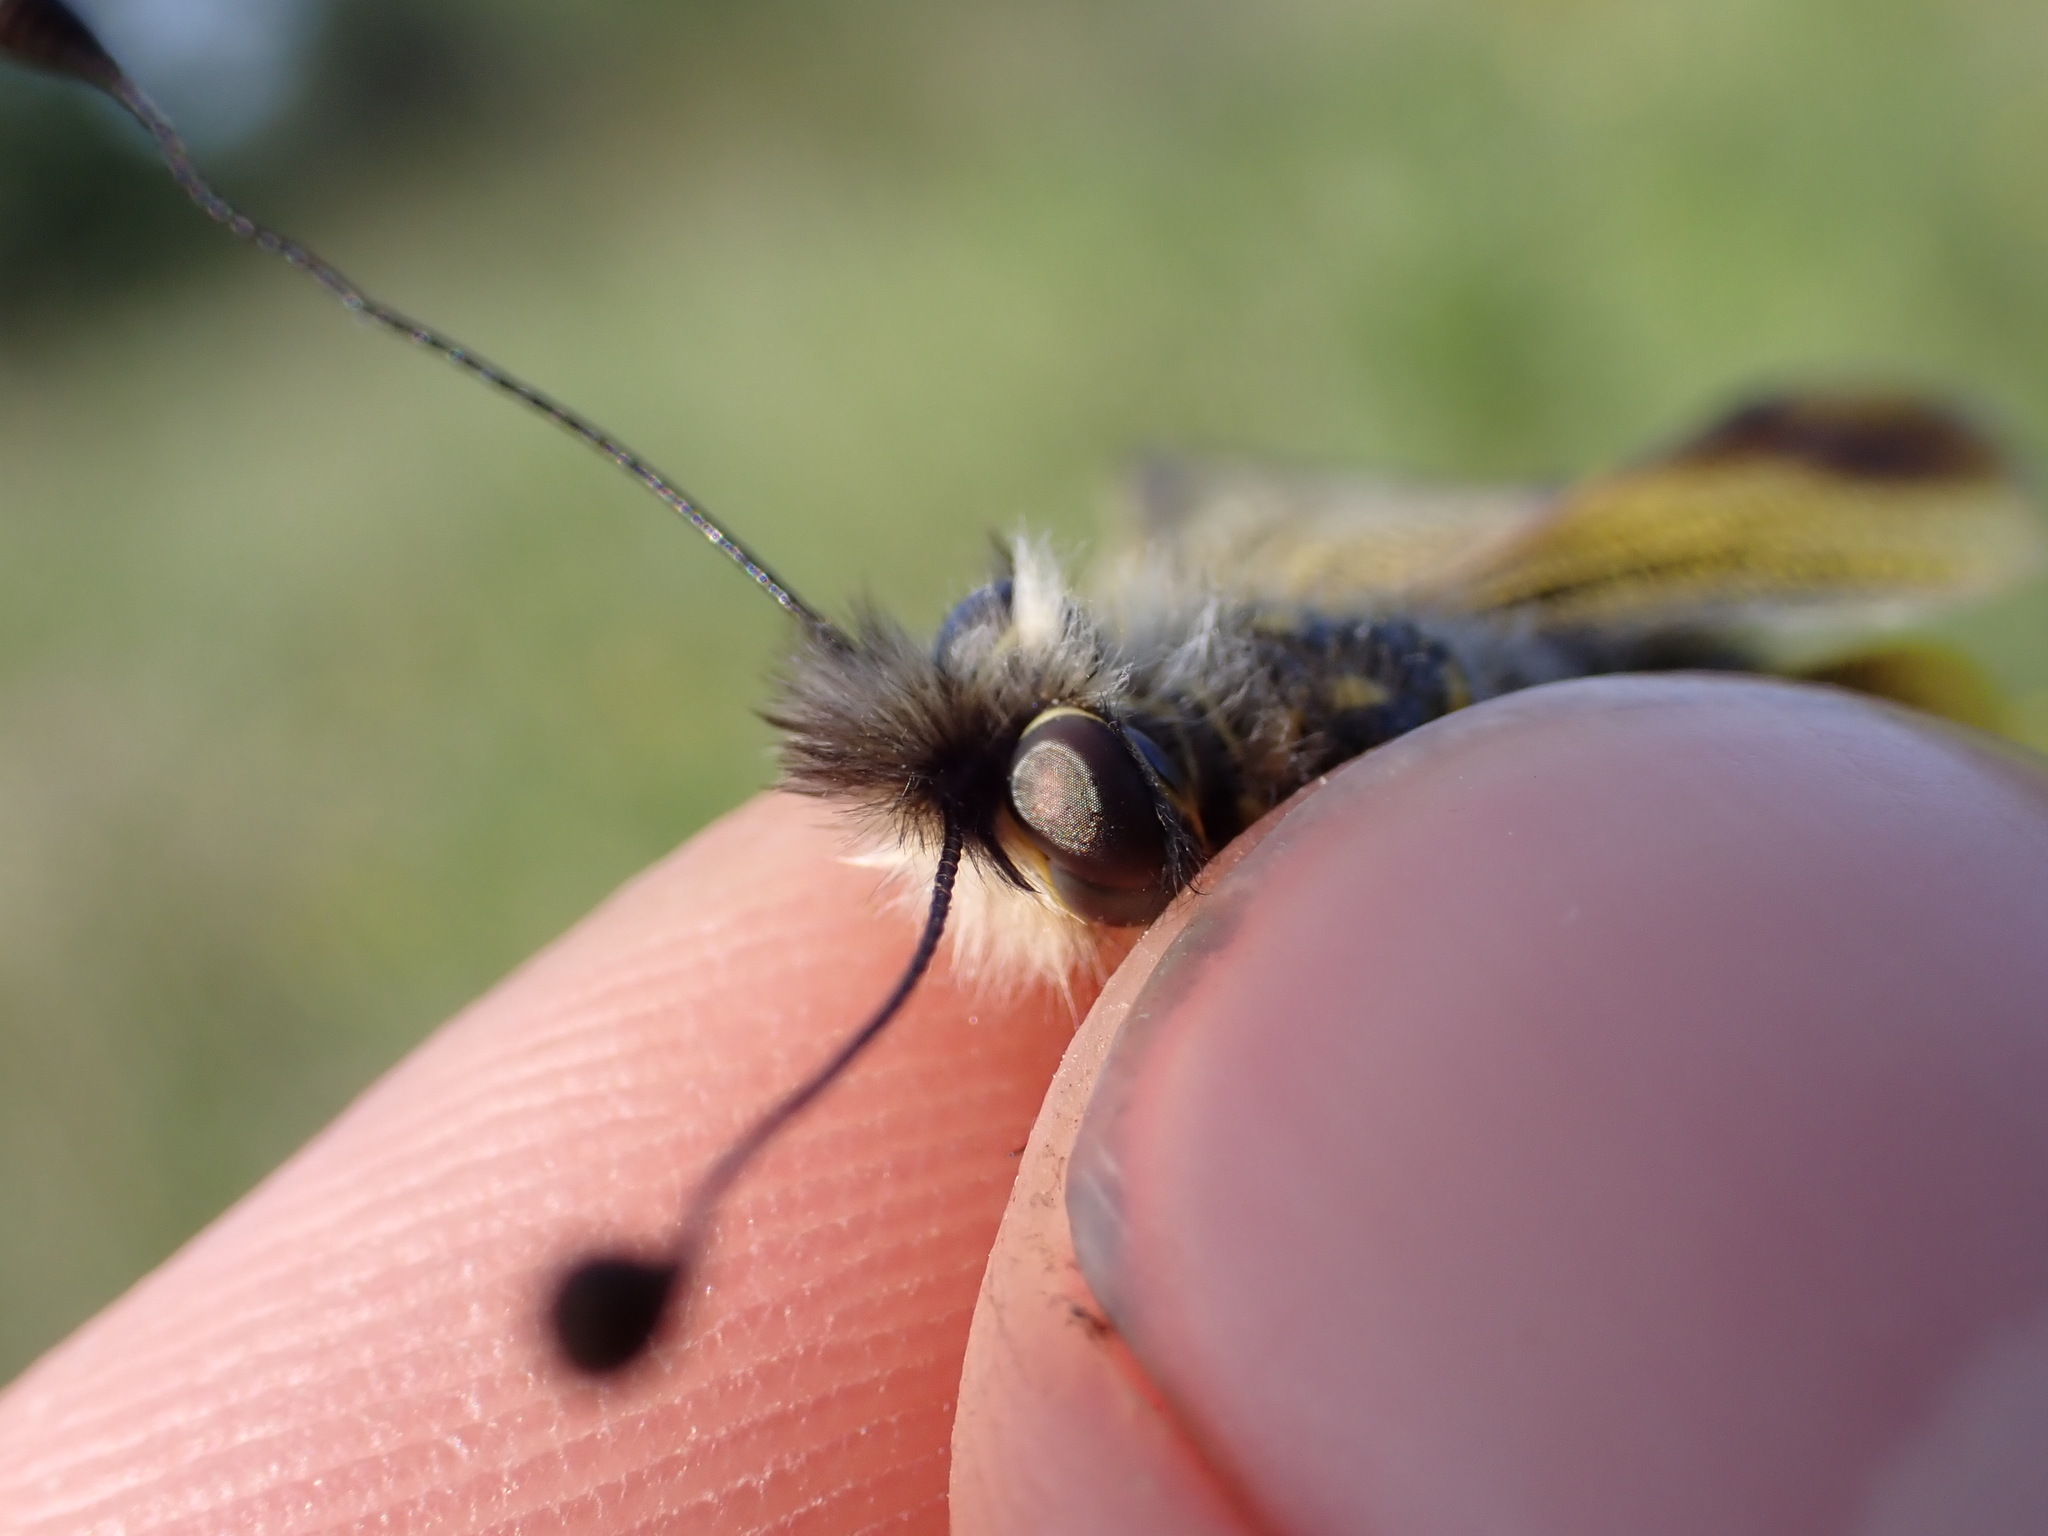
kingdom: Animalia
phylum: Arthropoda
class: Insecta
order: Neuroptera
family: Ascalaphidae
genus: Libelloides
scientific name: Libelloides ictericus
